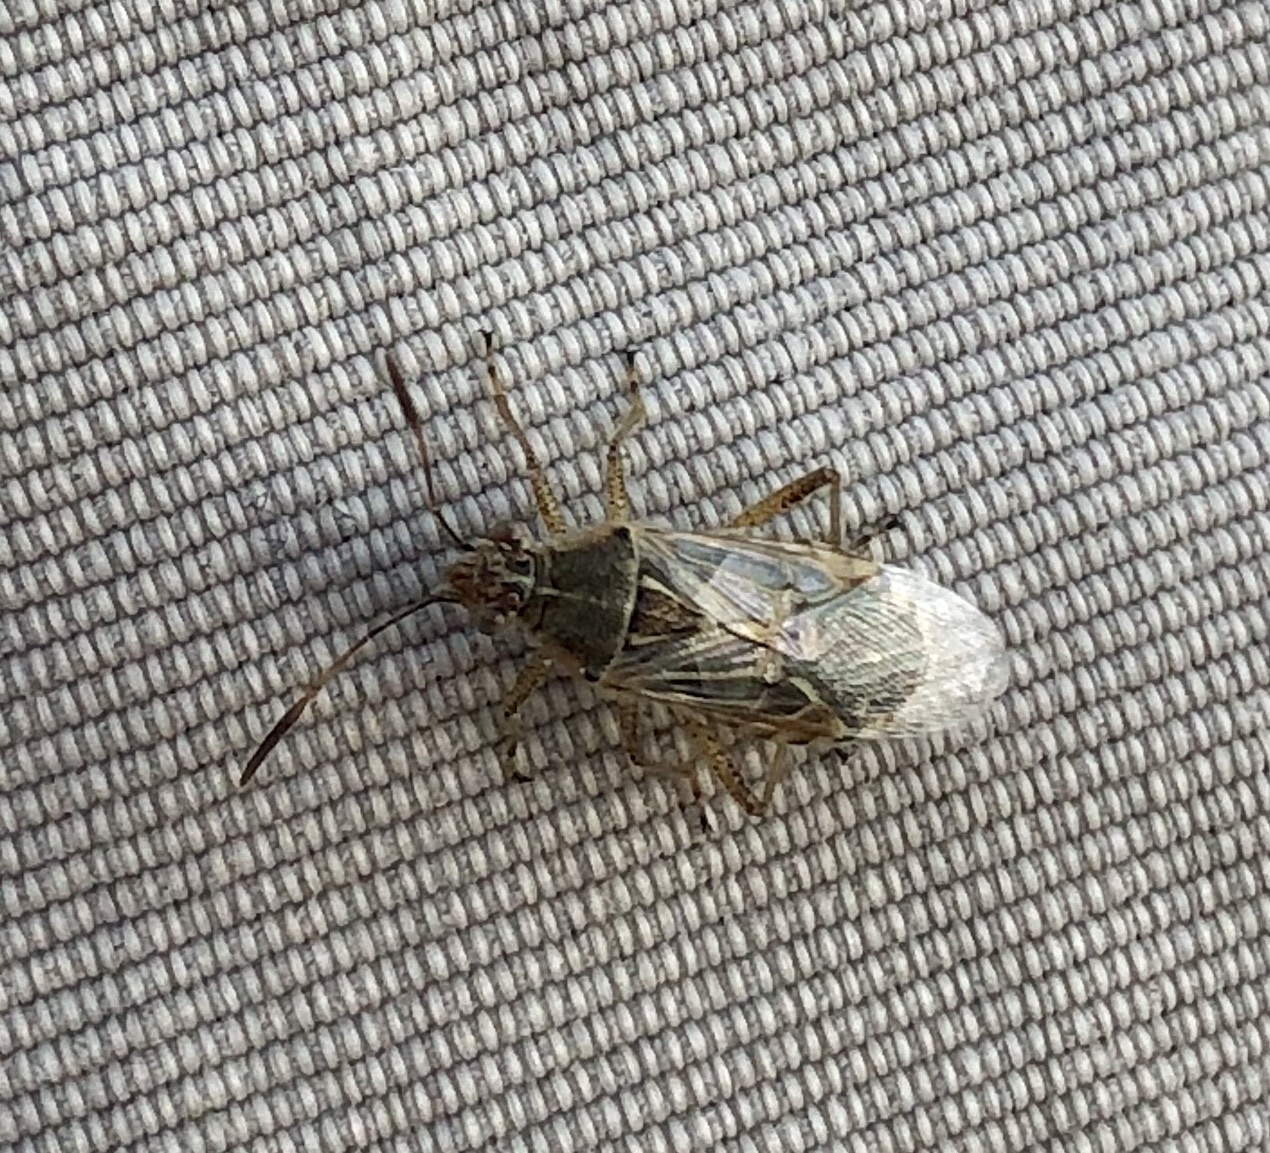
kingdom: Animalia
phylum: Arthropoda
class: Insecta
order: Hemiptera
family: Rhopalidae
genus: Liorhyssus
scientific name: Liorhyssus hyalinus
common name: Scentless plant bug
